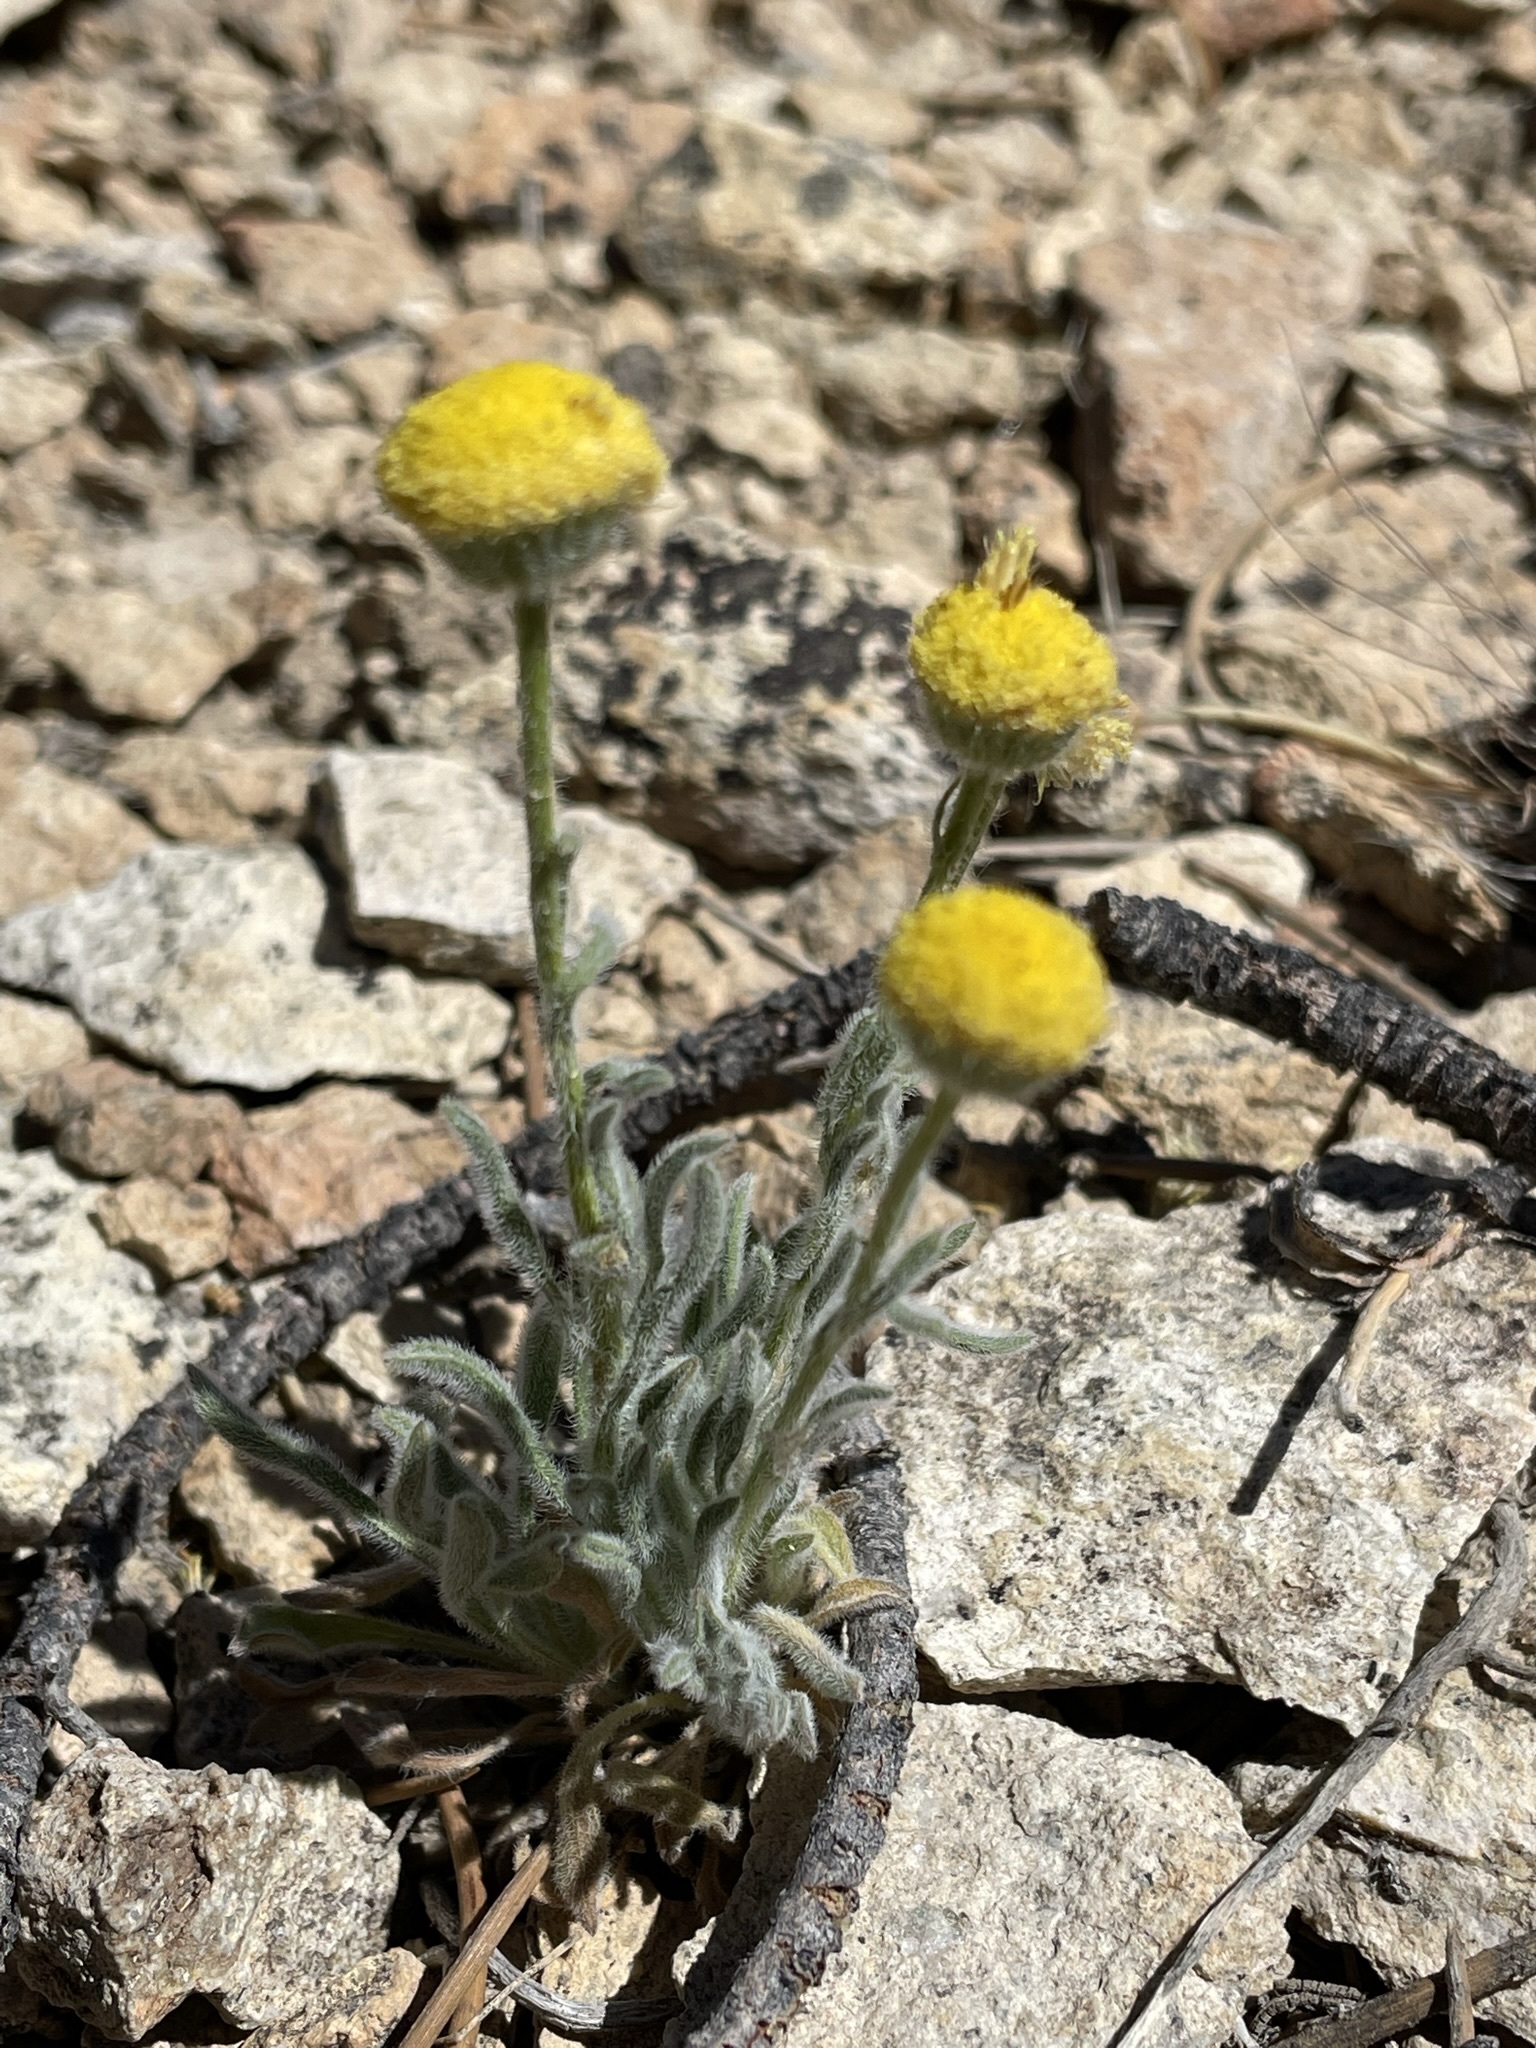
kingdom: Plantae
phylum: Tracheophyta
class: Magnoliopsida
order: Asterales
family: Asteraceae
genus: Erigeron
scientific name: Erigeron aphanactis
